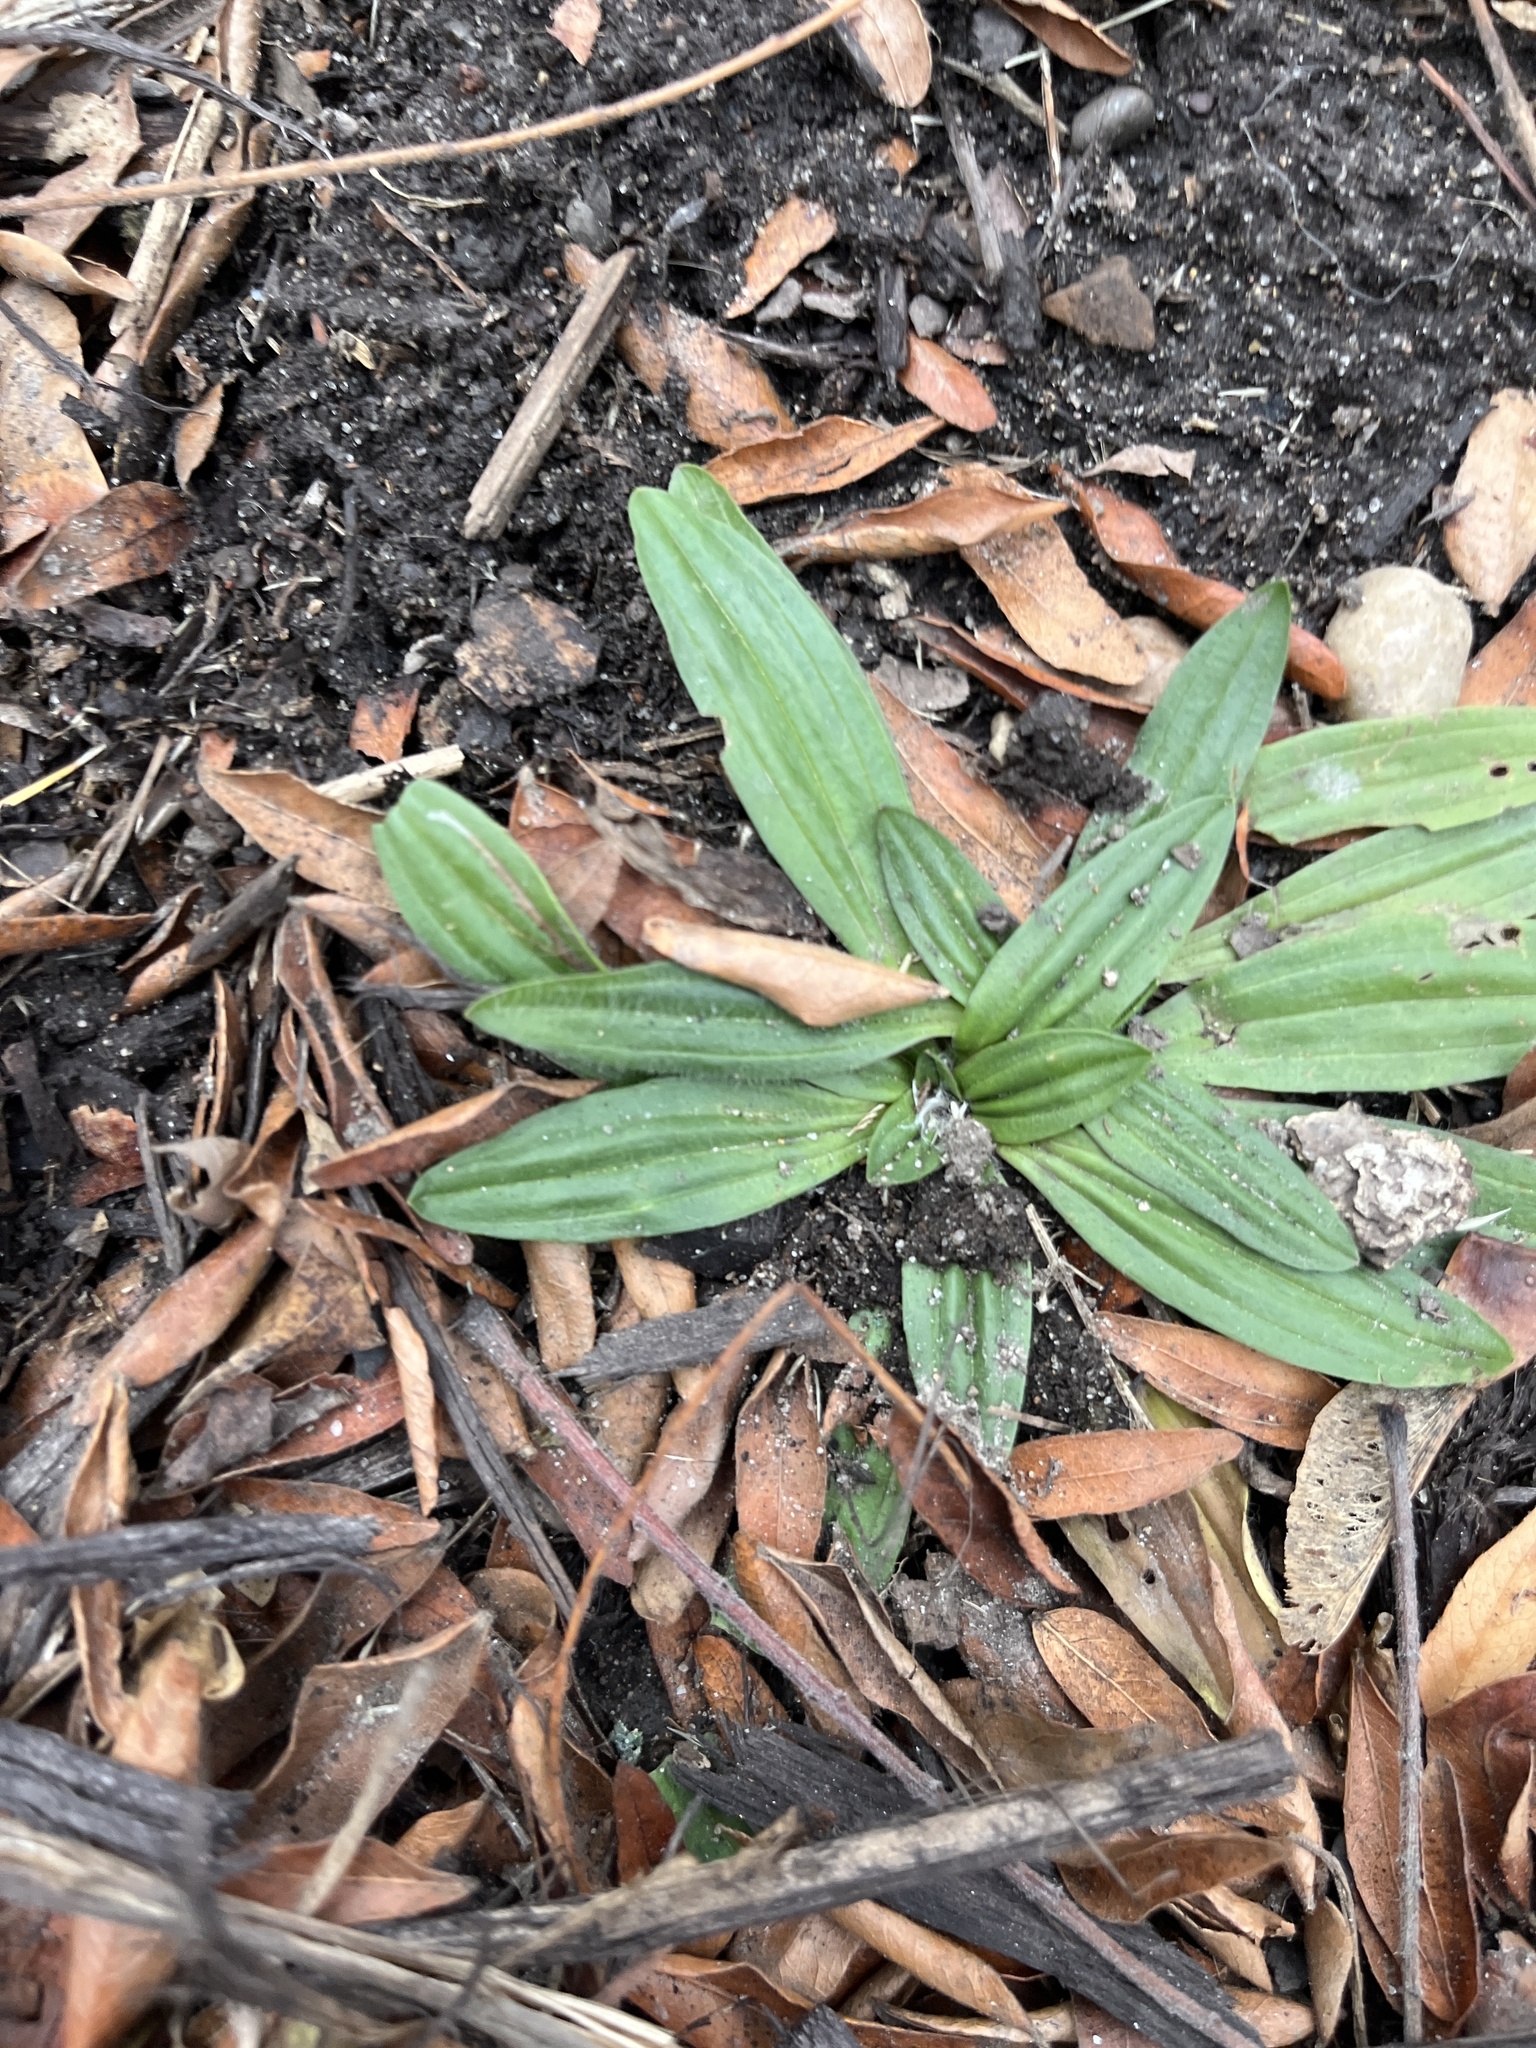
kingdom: Plantae
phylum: Tracheophyta
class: Magnoliopsida
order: Lamiales
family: Plantaginaceae
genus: Plantago
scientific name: Plantago lanceolata
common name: Ribwort plantain
